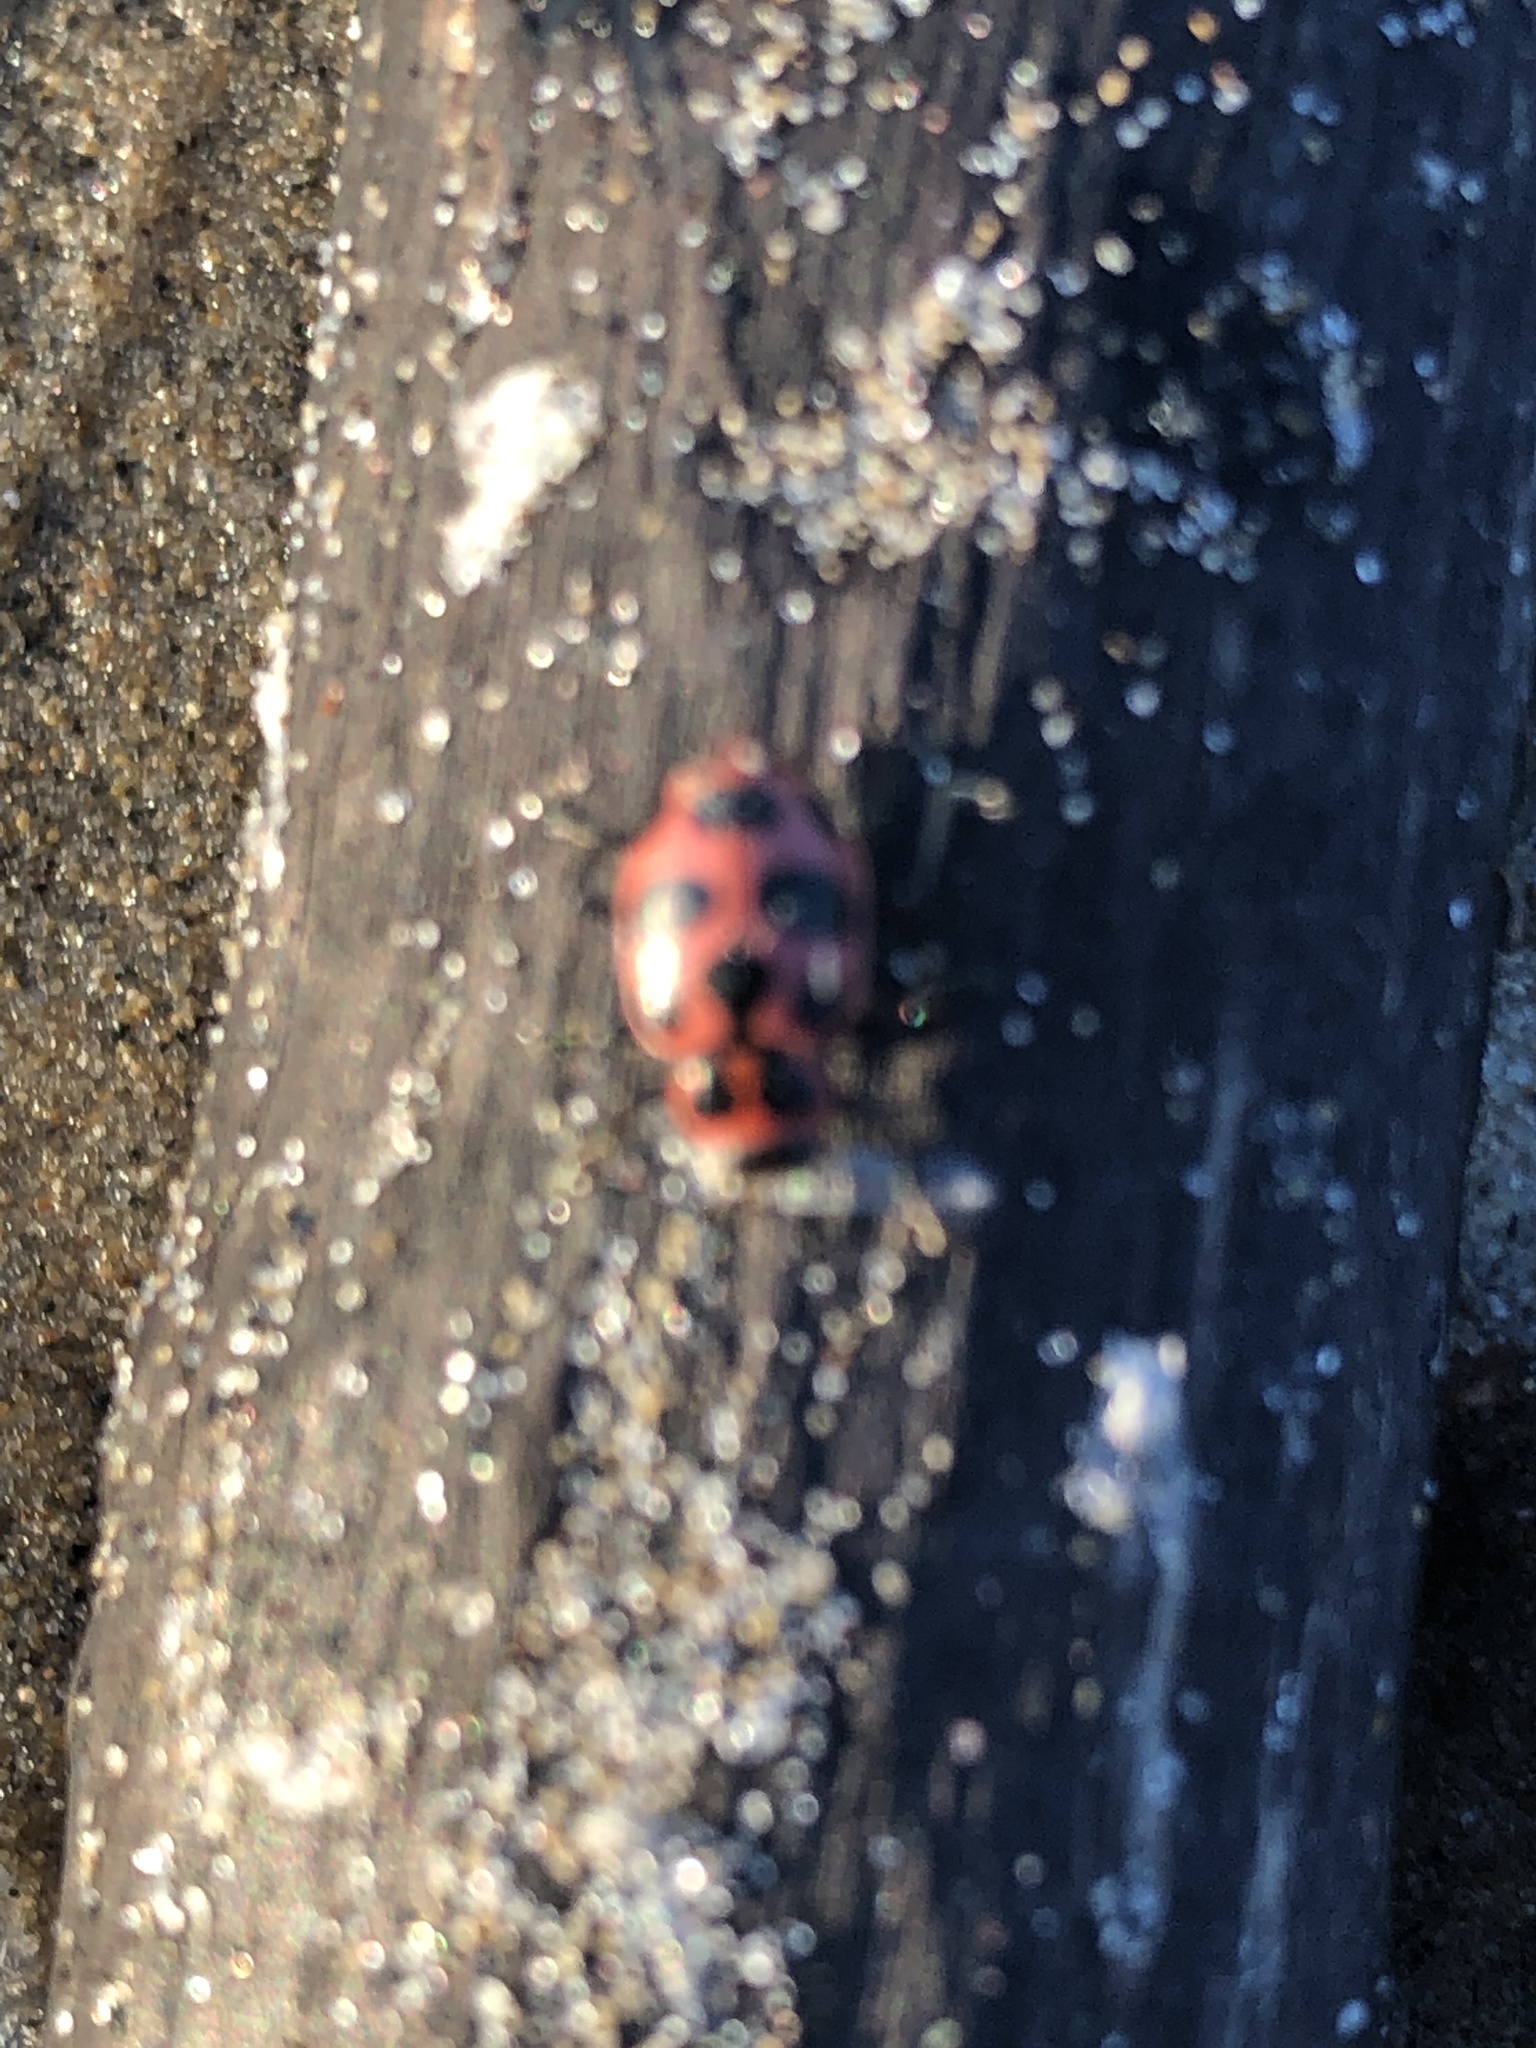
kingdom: Animalia
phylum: Arthropoda
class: Insecta
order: Coleoptera
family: Coccinellidae
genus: Coleomegilla
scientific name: Coleomegilla maculata
